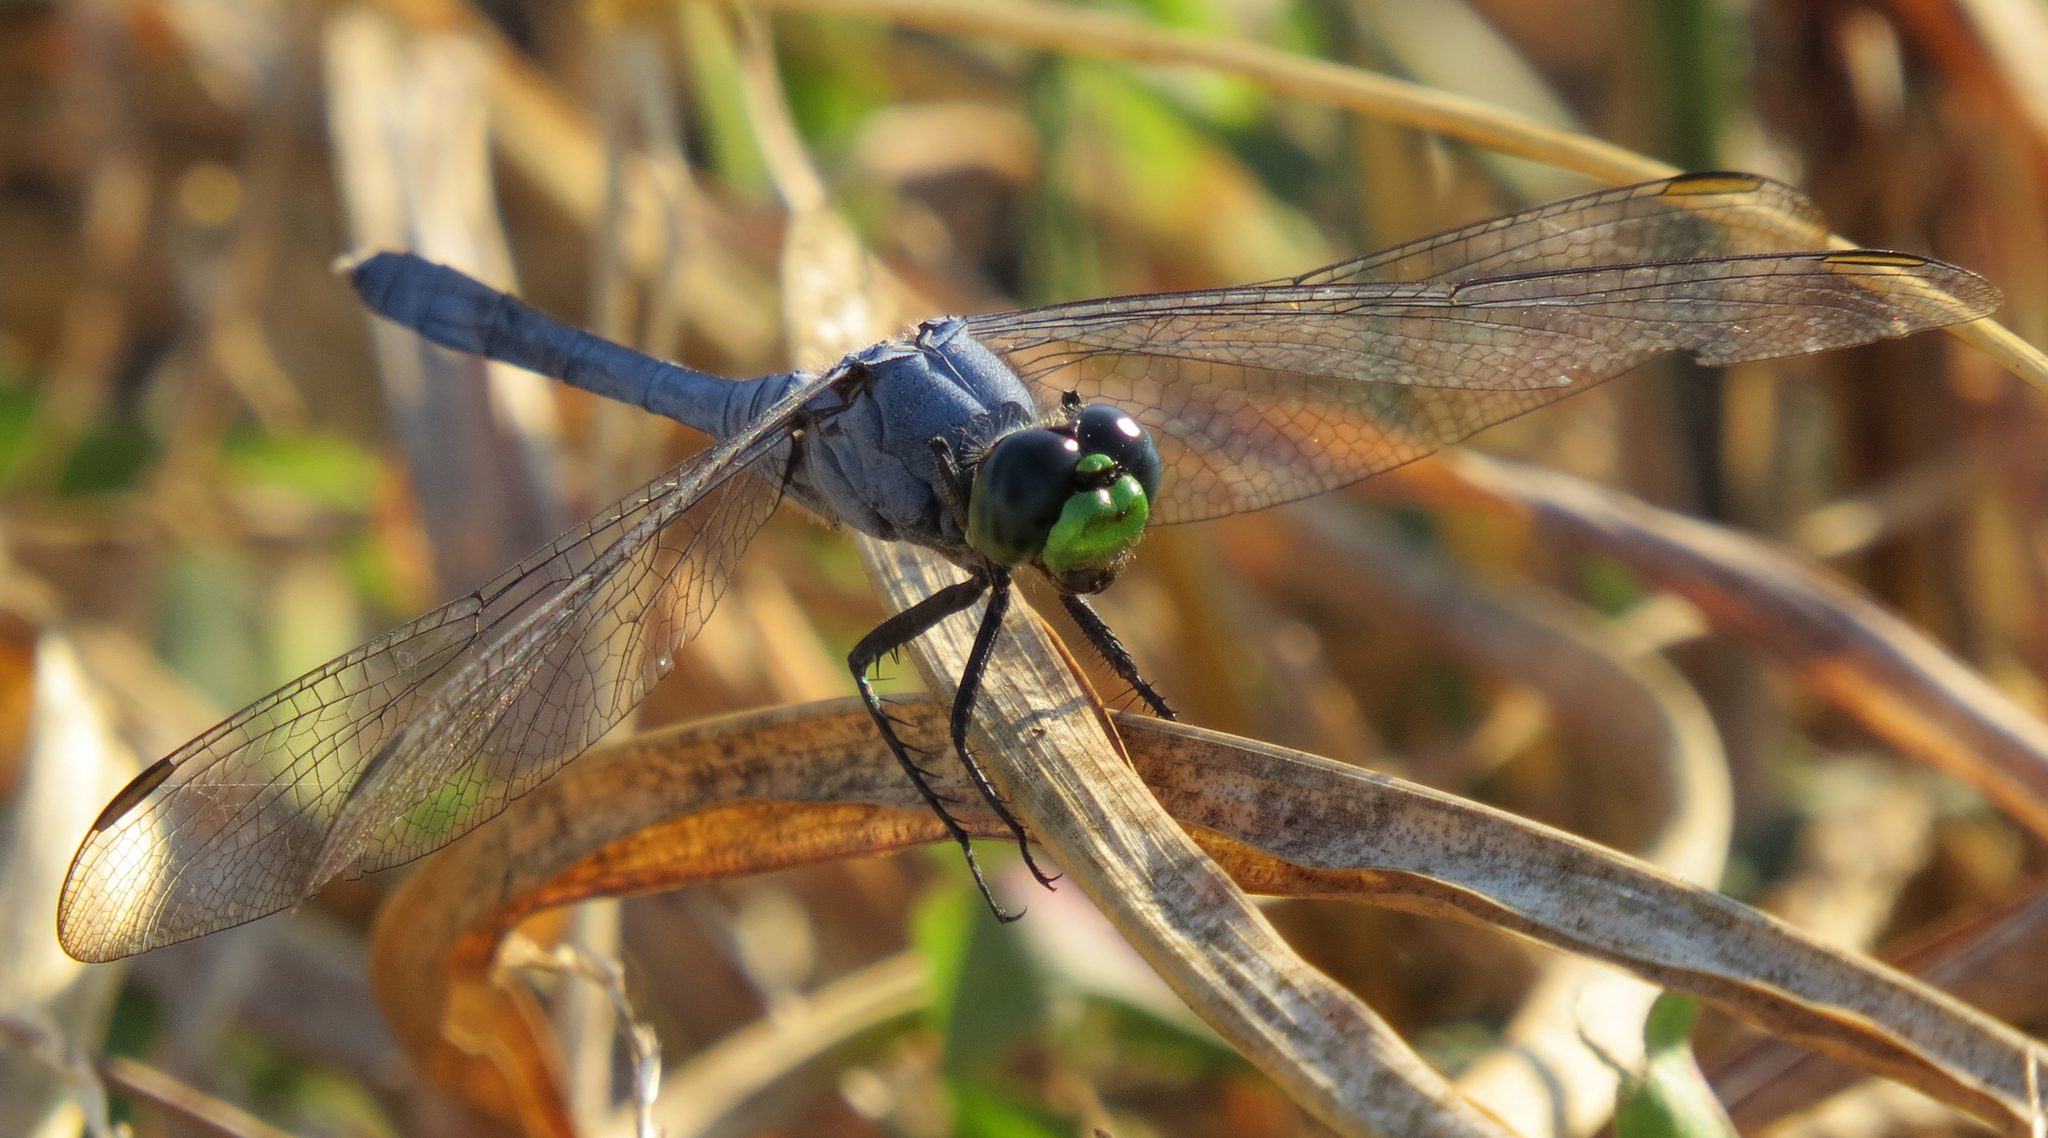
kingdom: Animalia
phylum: Arthropoda
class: Insecta
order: Odonata
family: Libellulidae
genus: Erythemis
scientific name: Erythemis simplicicollis
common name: Eastern pondhawk
